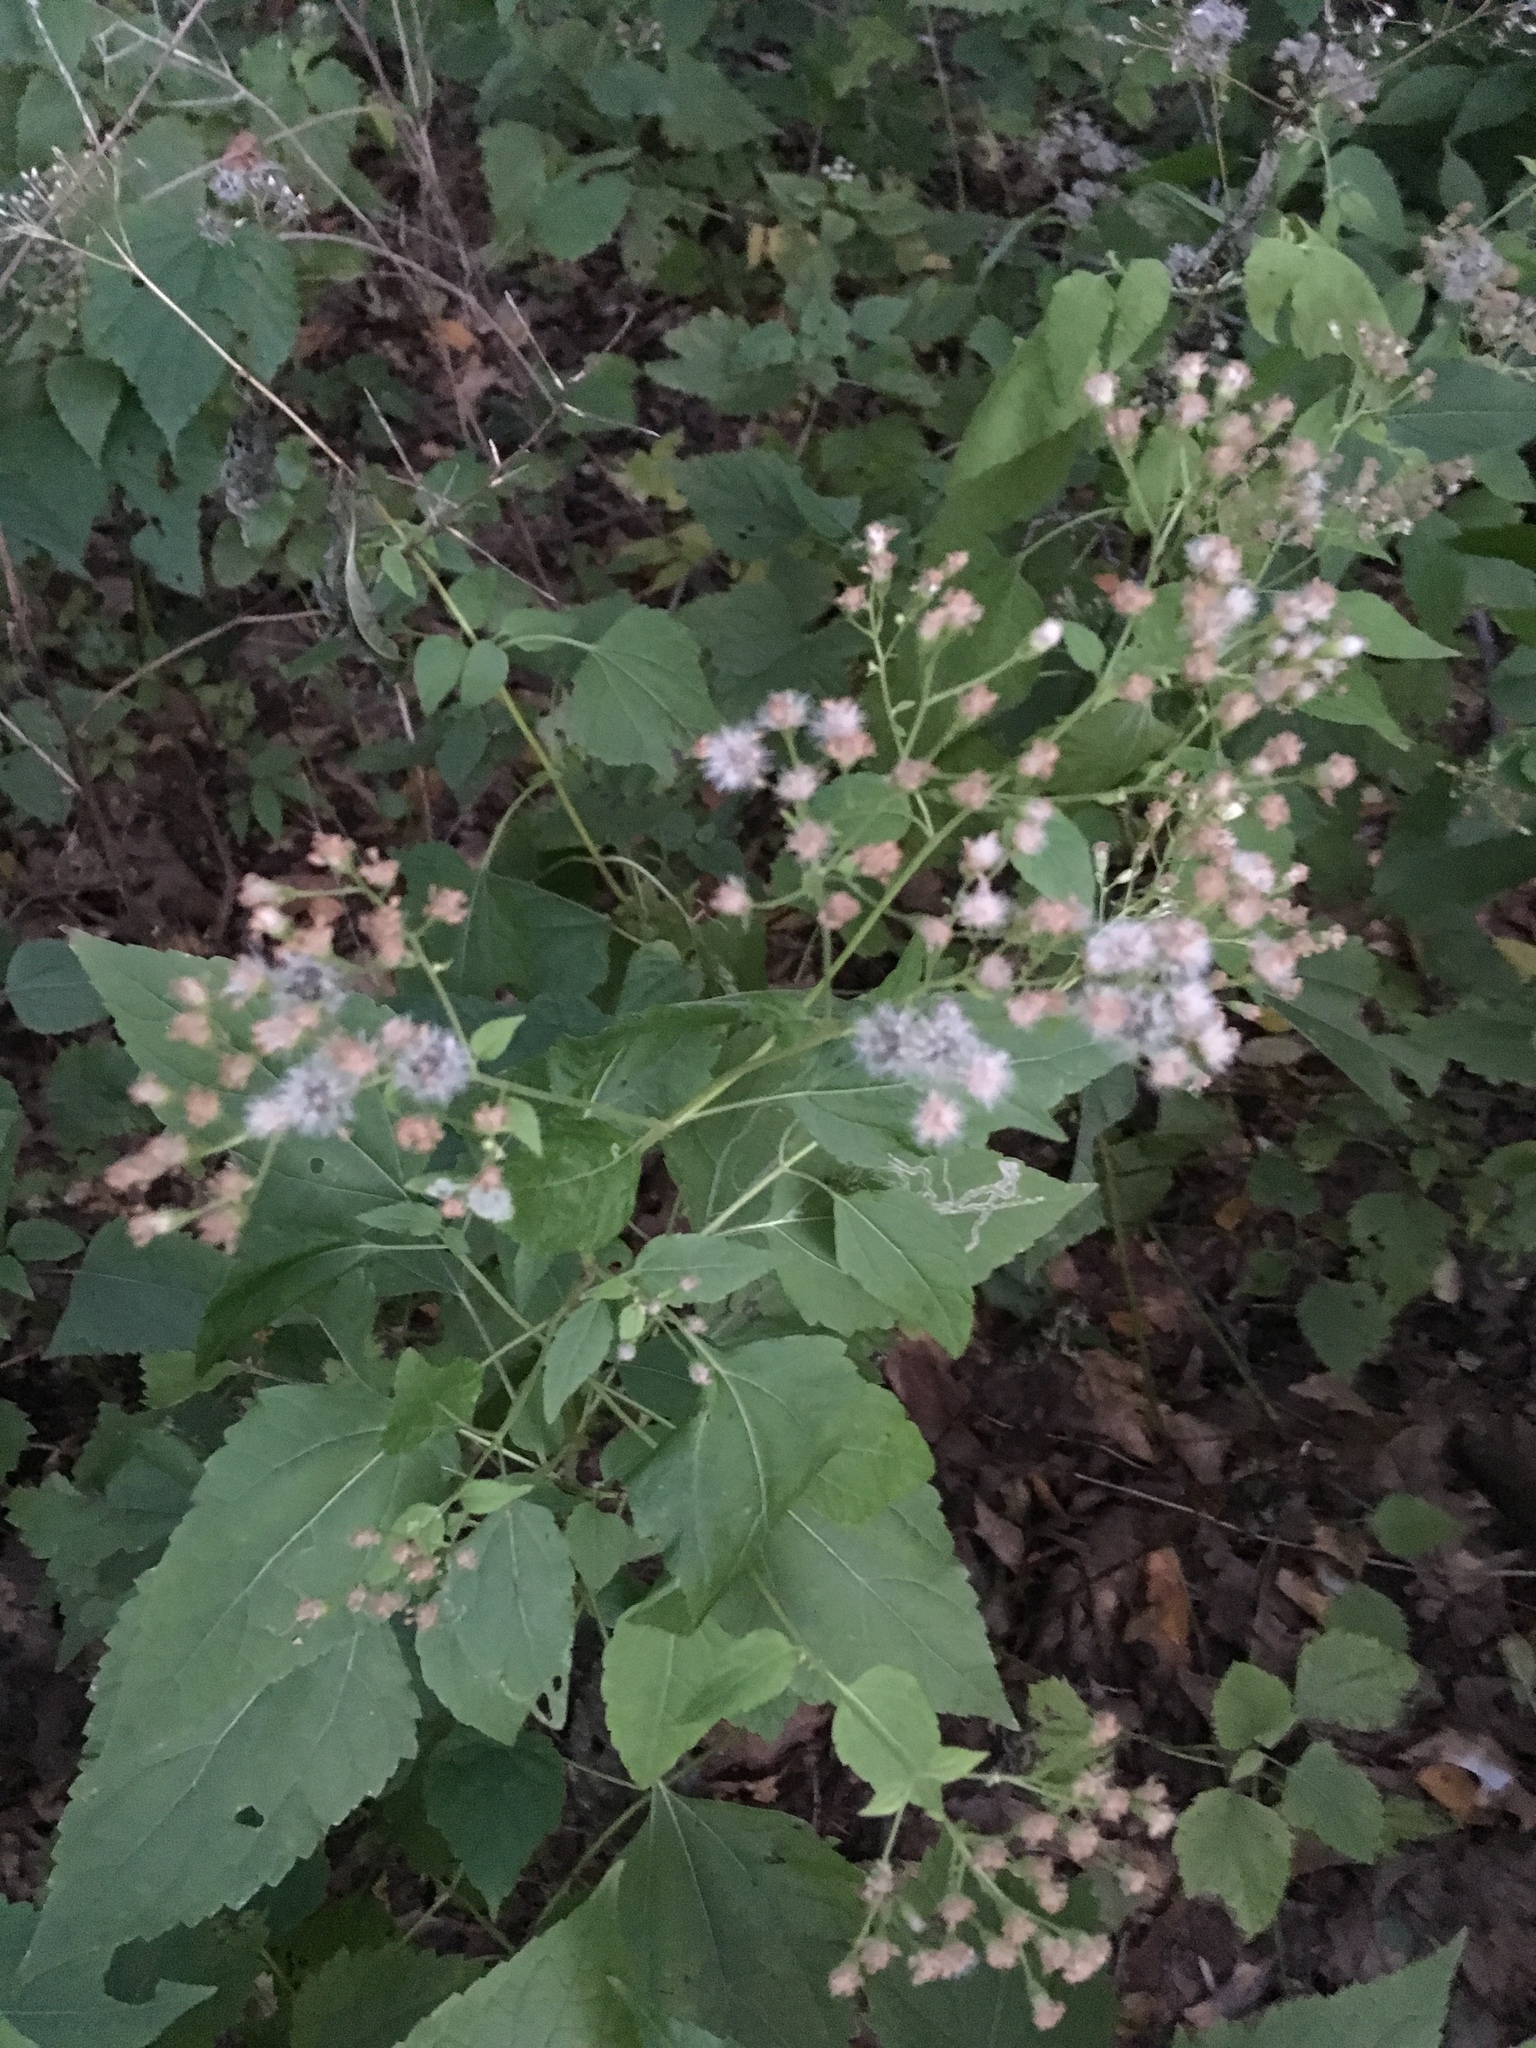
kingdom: Plantae
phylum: Tracheophyta
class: Magnoliopsida
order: Asterales
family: Asteraceae
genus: Ageratina
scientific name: Ageratina altissima
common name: White snakeroot
